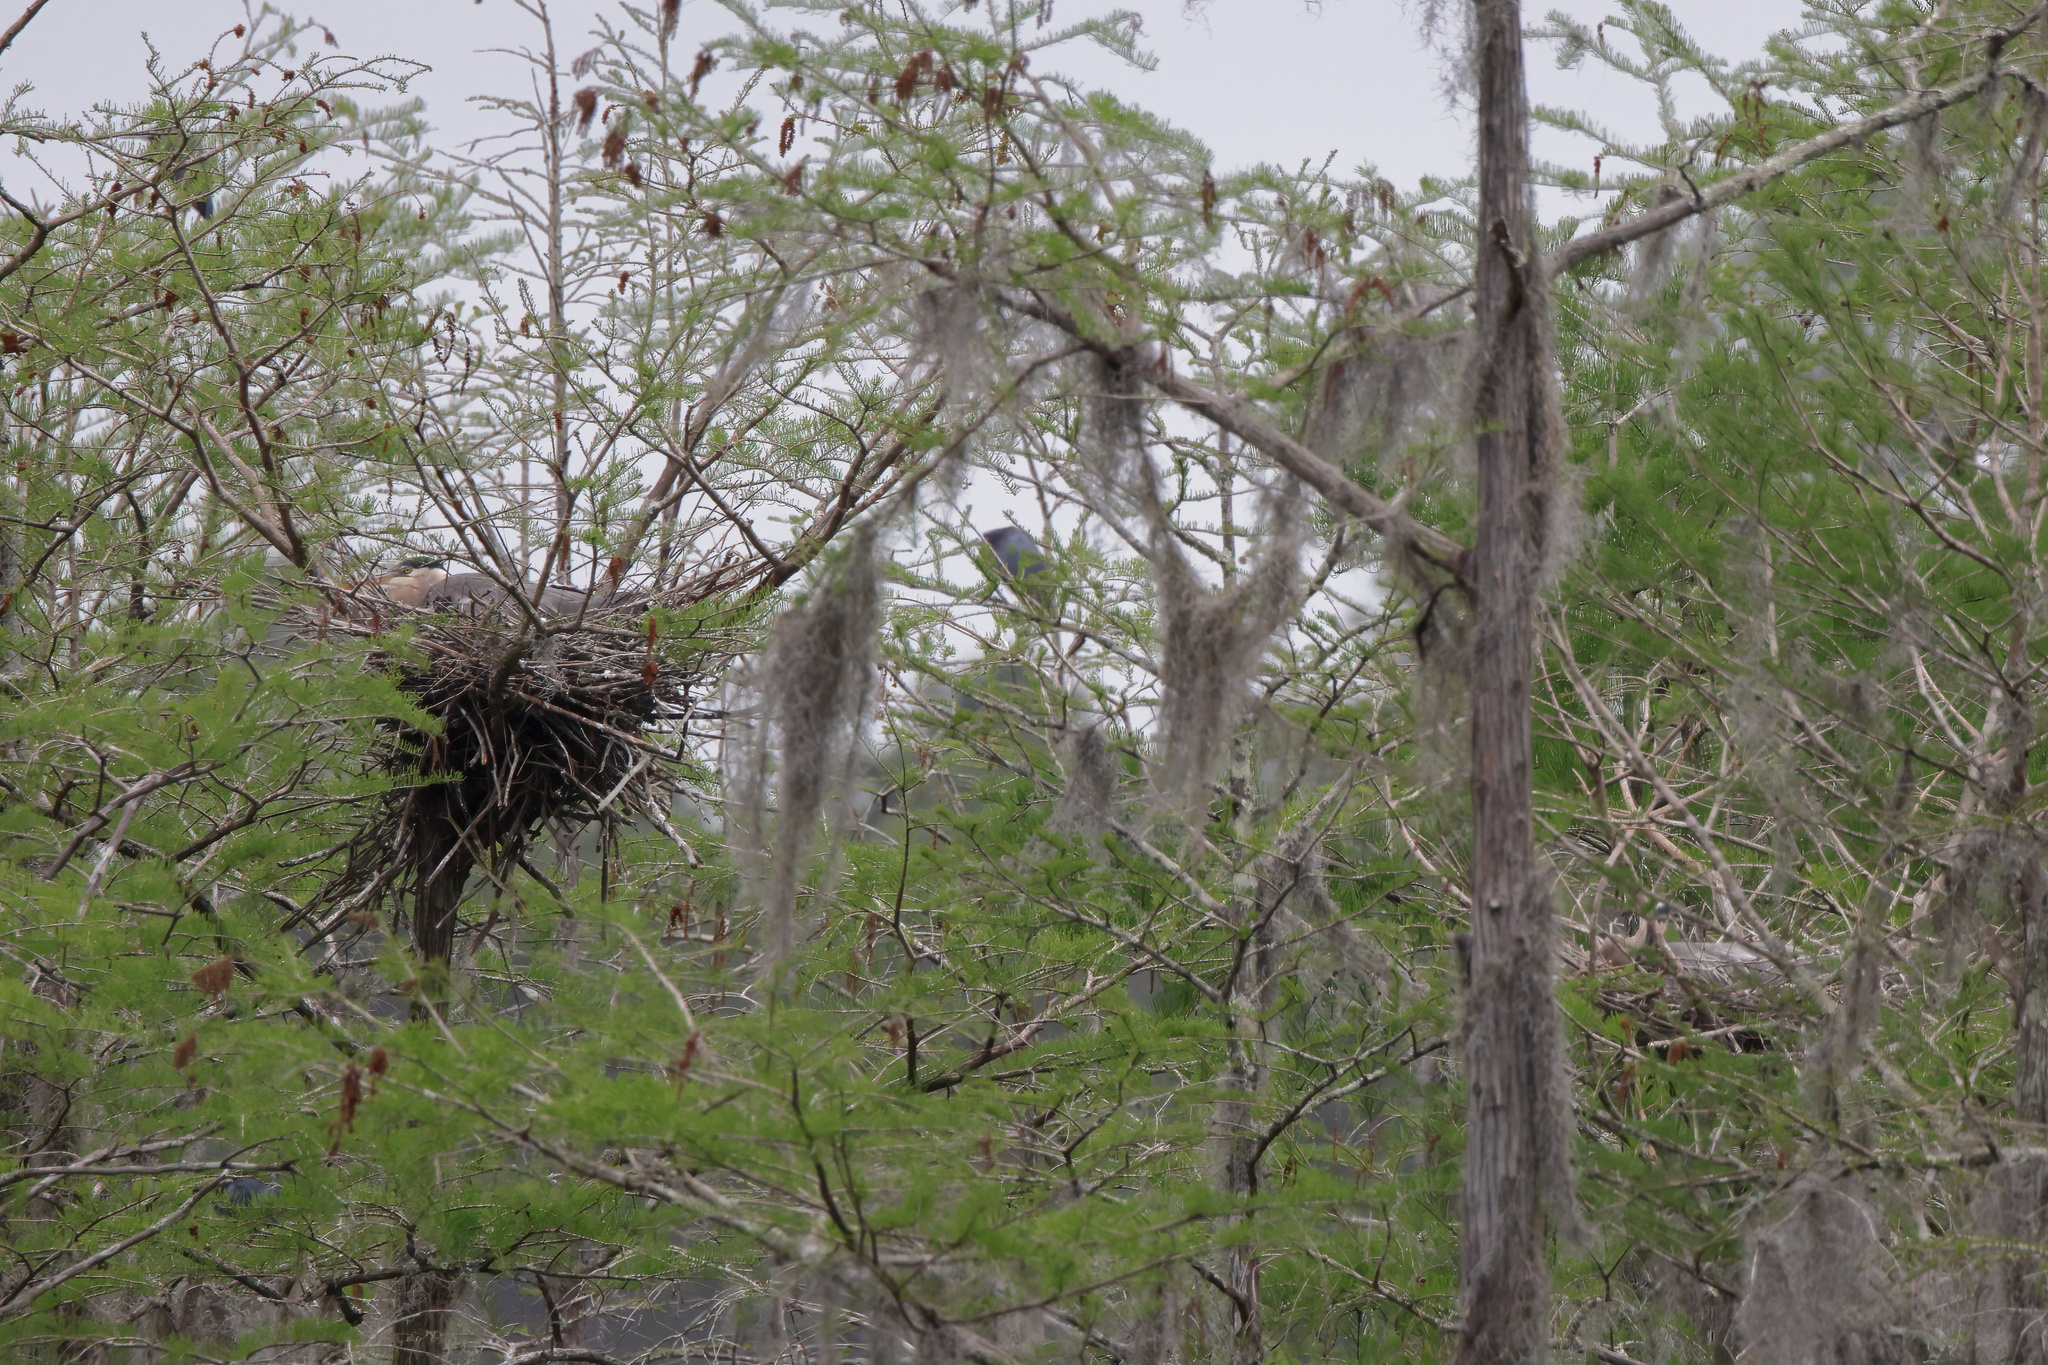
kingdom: Animalia
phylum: Chordata
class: Aves
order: Pelecaniformes
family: Ardeidae
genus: Ardea
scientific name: Ardea herodias
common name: Great blue heron
